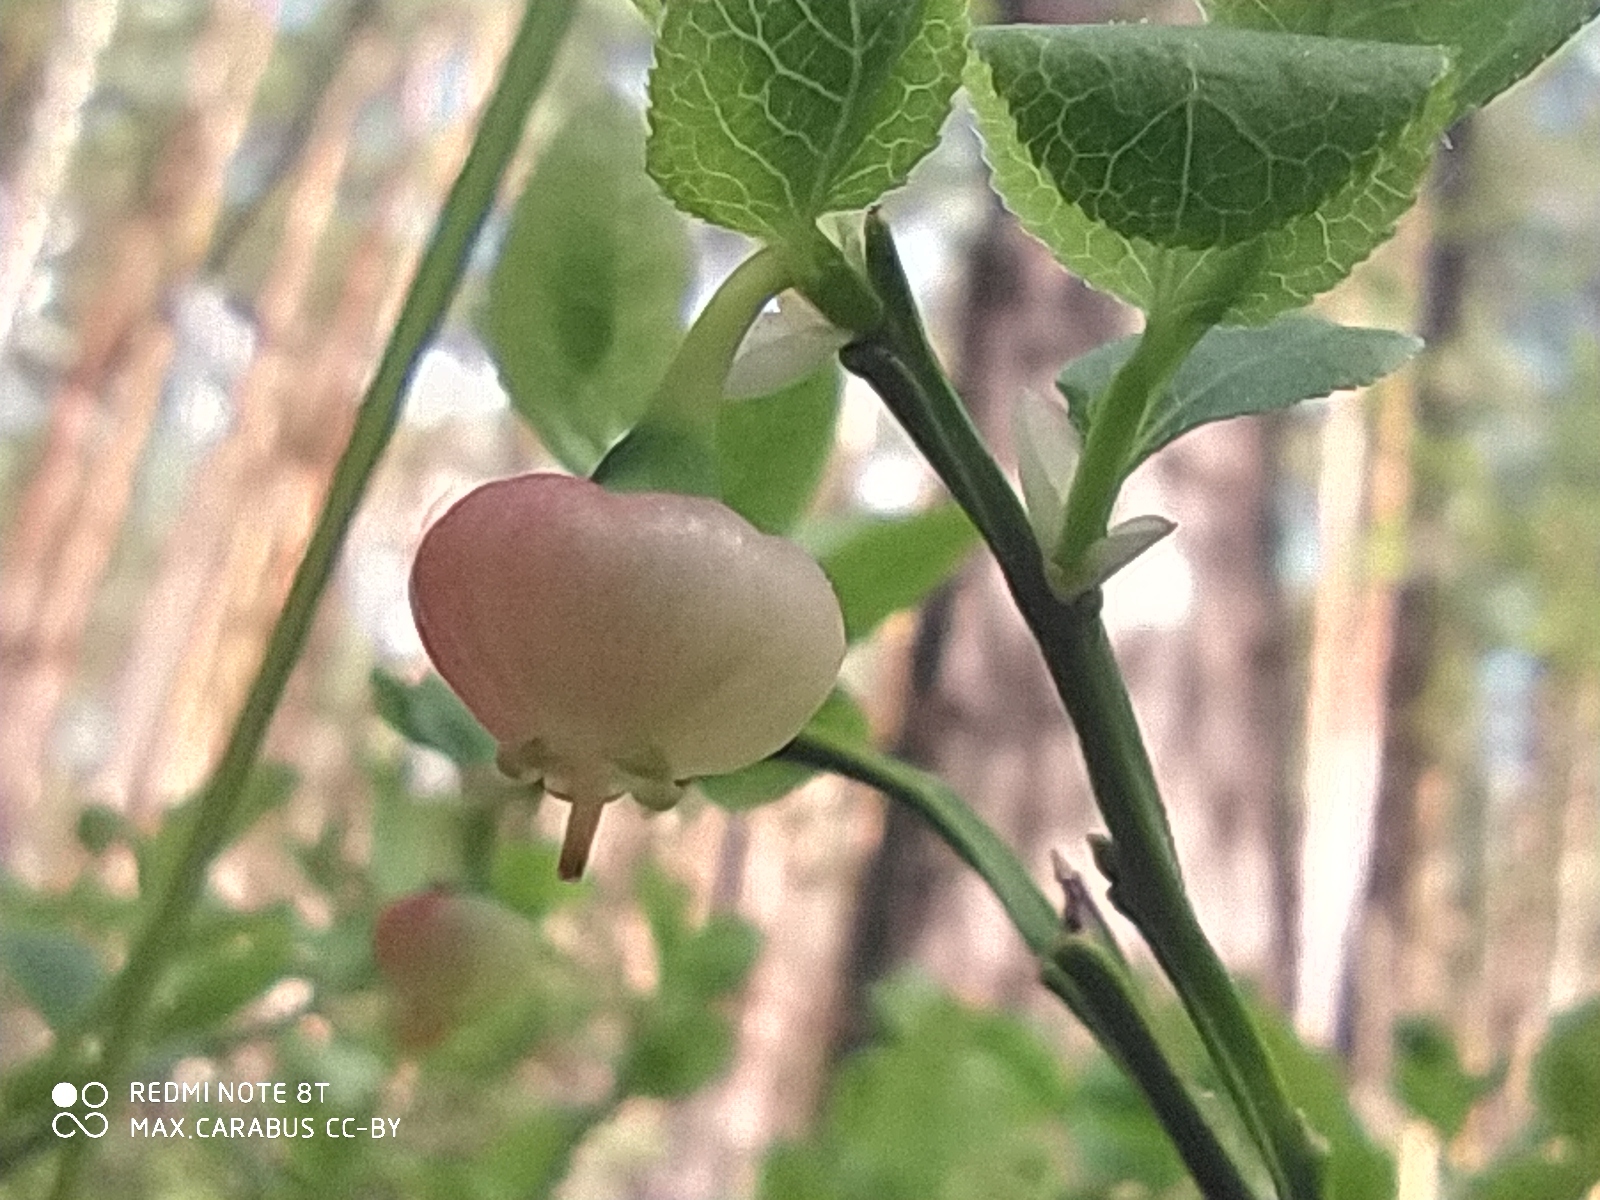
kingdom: Plantae
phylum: Tracheophyta
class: Magnoliopsida
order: Ericales
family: Ericaceae
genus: Vaccinium
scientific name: Vaccinium myrtillus
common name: Bilberry
